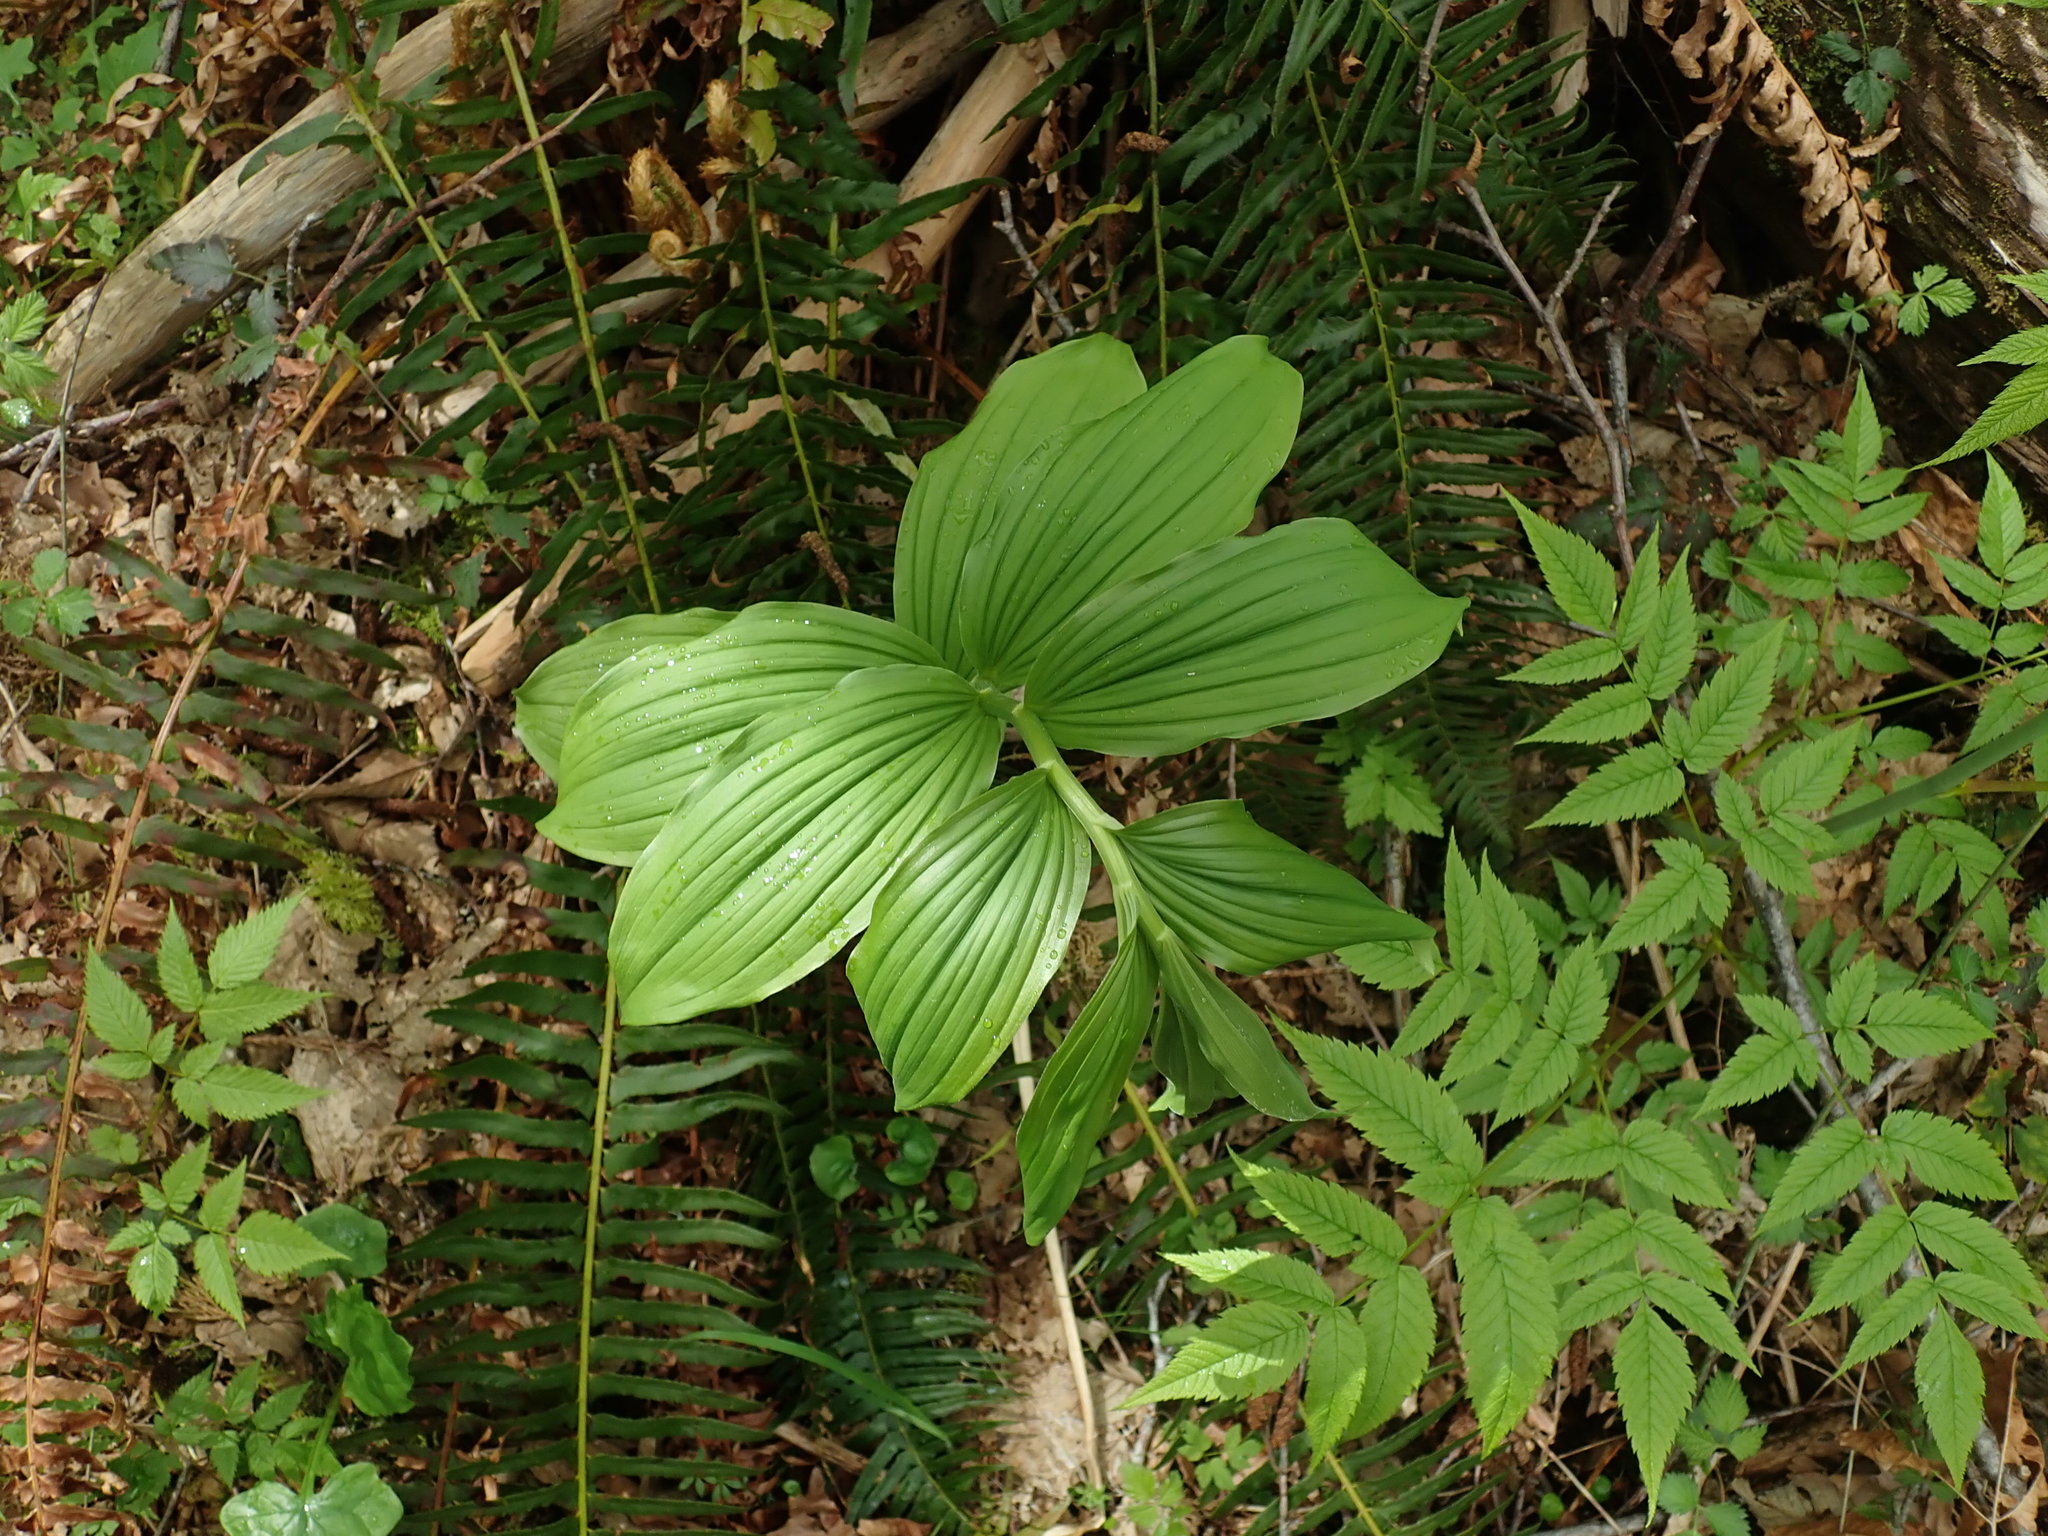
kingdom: Plantae
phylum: Tracheophyta
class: Liliopsida
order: Asparagales
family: Asparagaceae
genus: Maianthemum
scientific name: Maianthemum racemosum
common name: False spikenard
